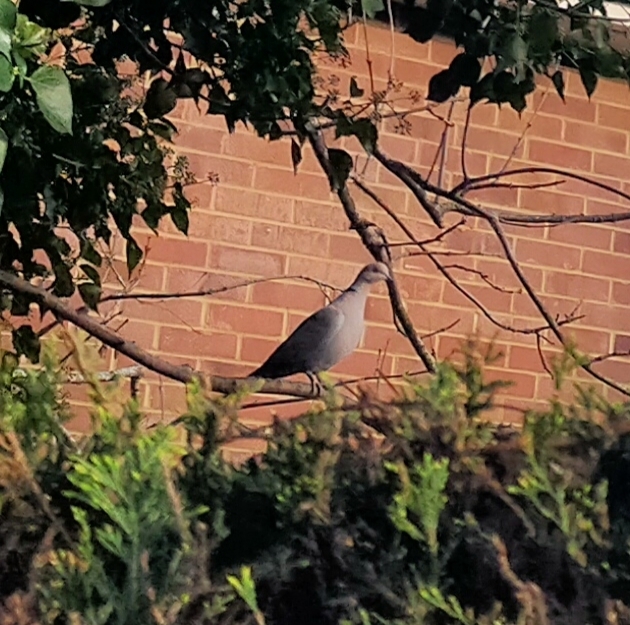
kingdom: Animalia
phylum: Chordata
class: Aves
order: Columbiformes
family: Columbidae
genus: Streptopelia
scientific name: Streptopelia decaocto
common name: Eurasian collared dove
